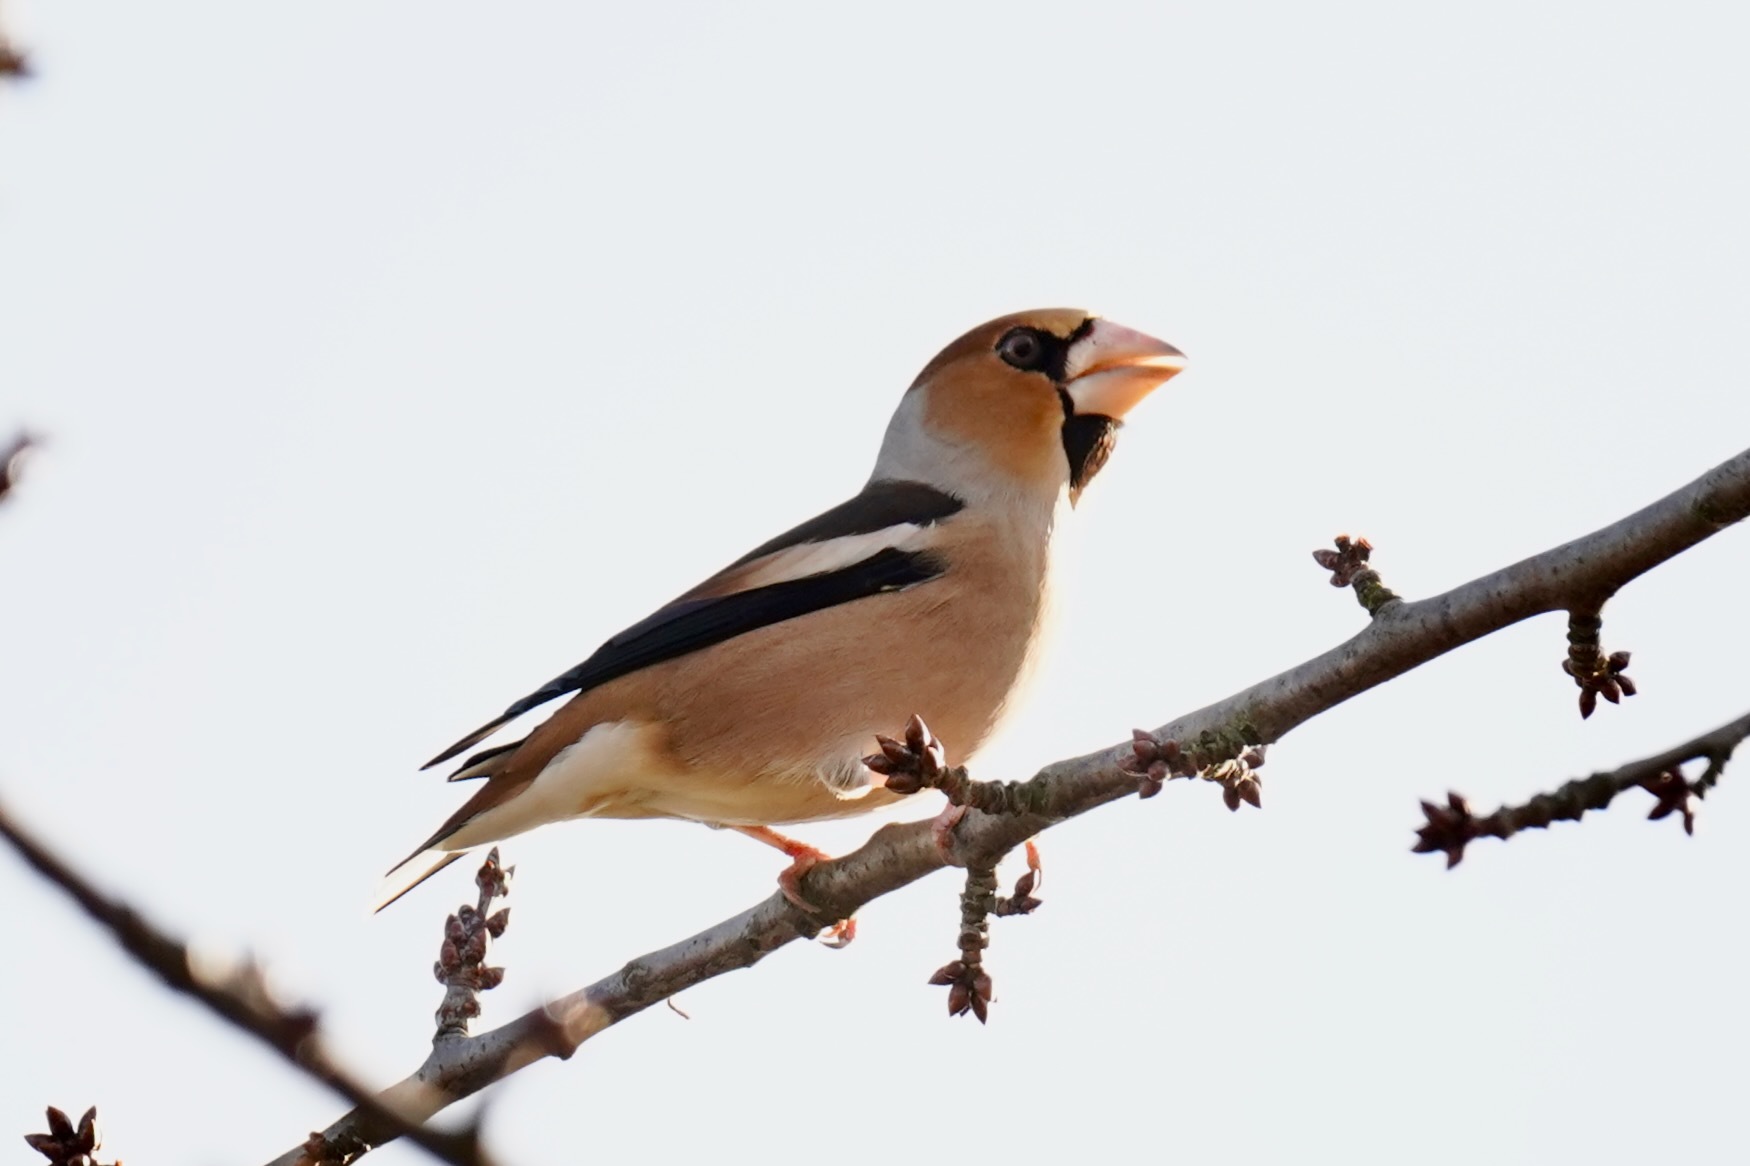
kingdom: Animalia
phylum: Chordata
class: Aves
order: Passeriformes
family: Fringillidae
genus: Coccothraustes
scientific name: Coccothraustes coccothraustes
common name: Hawfinch
